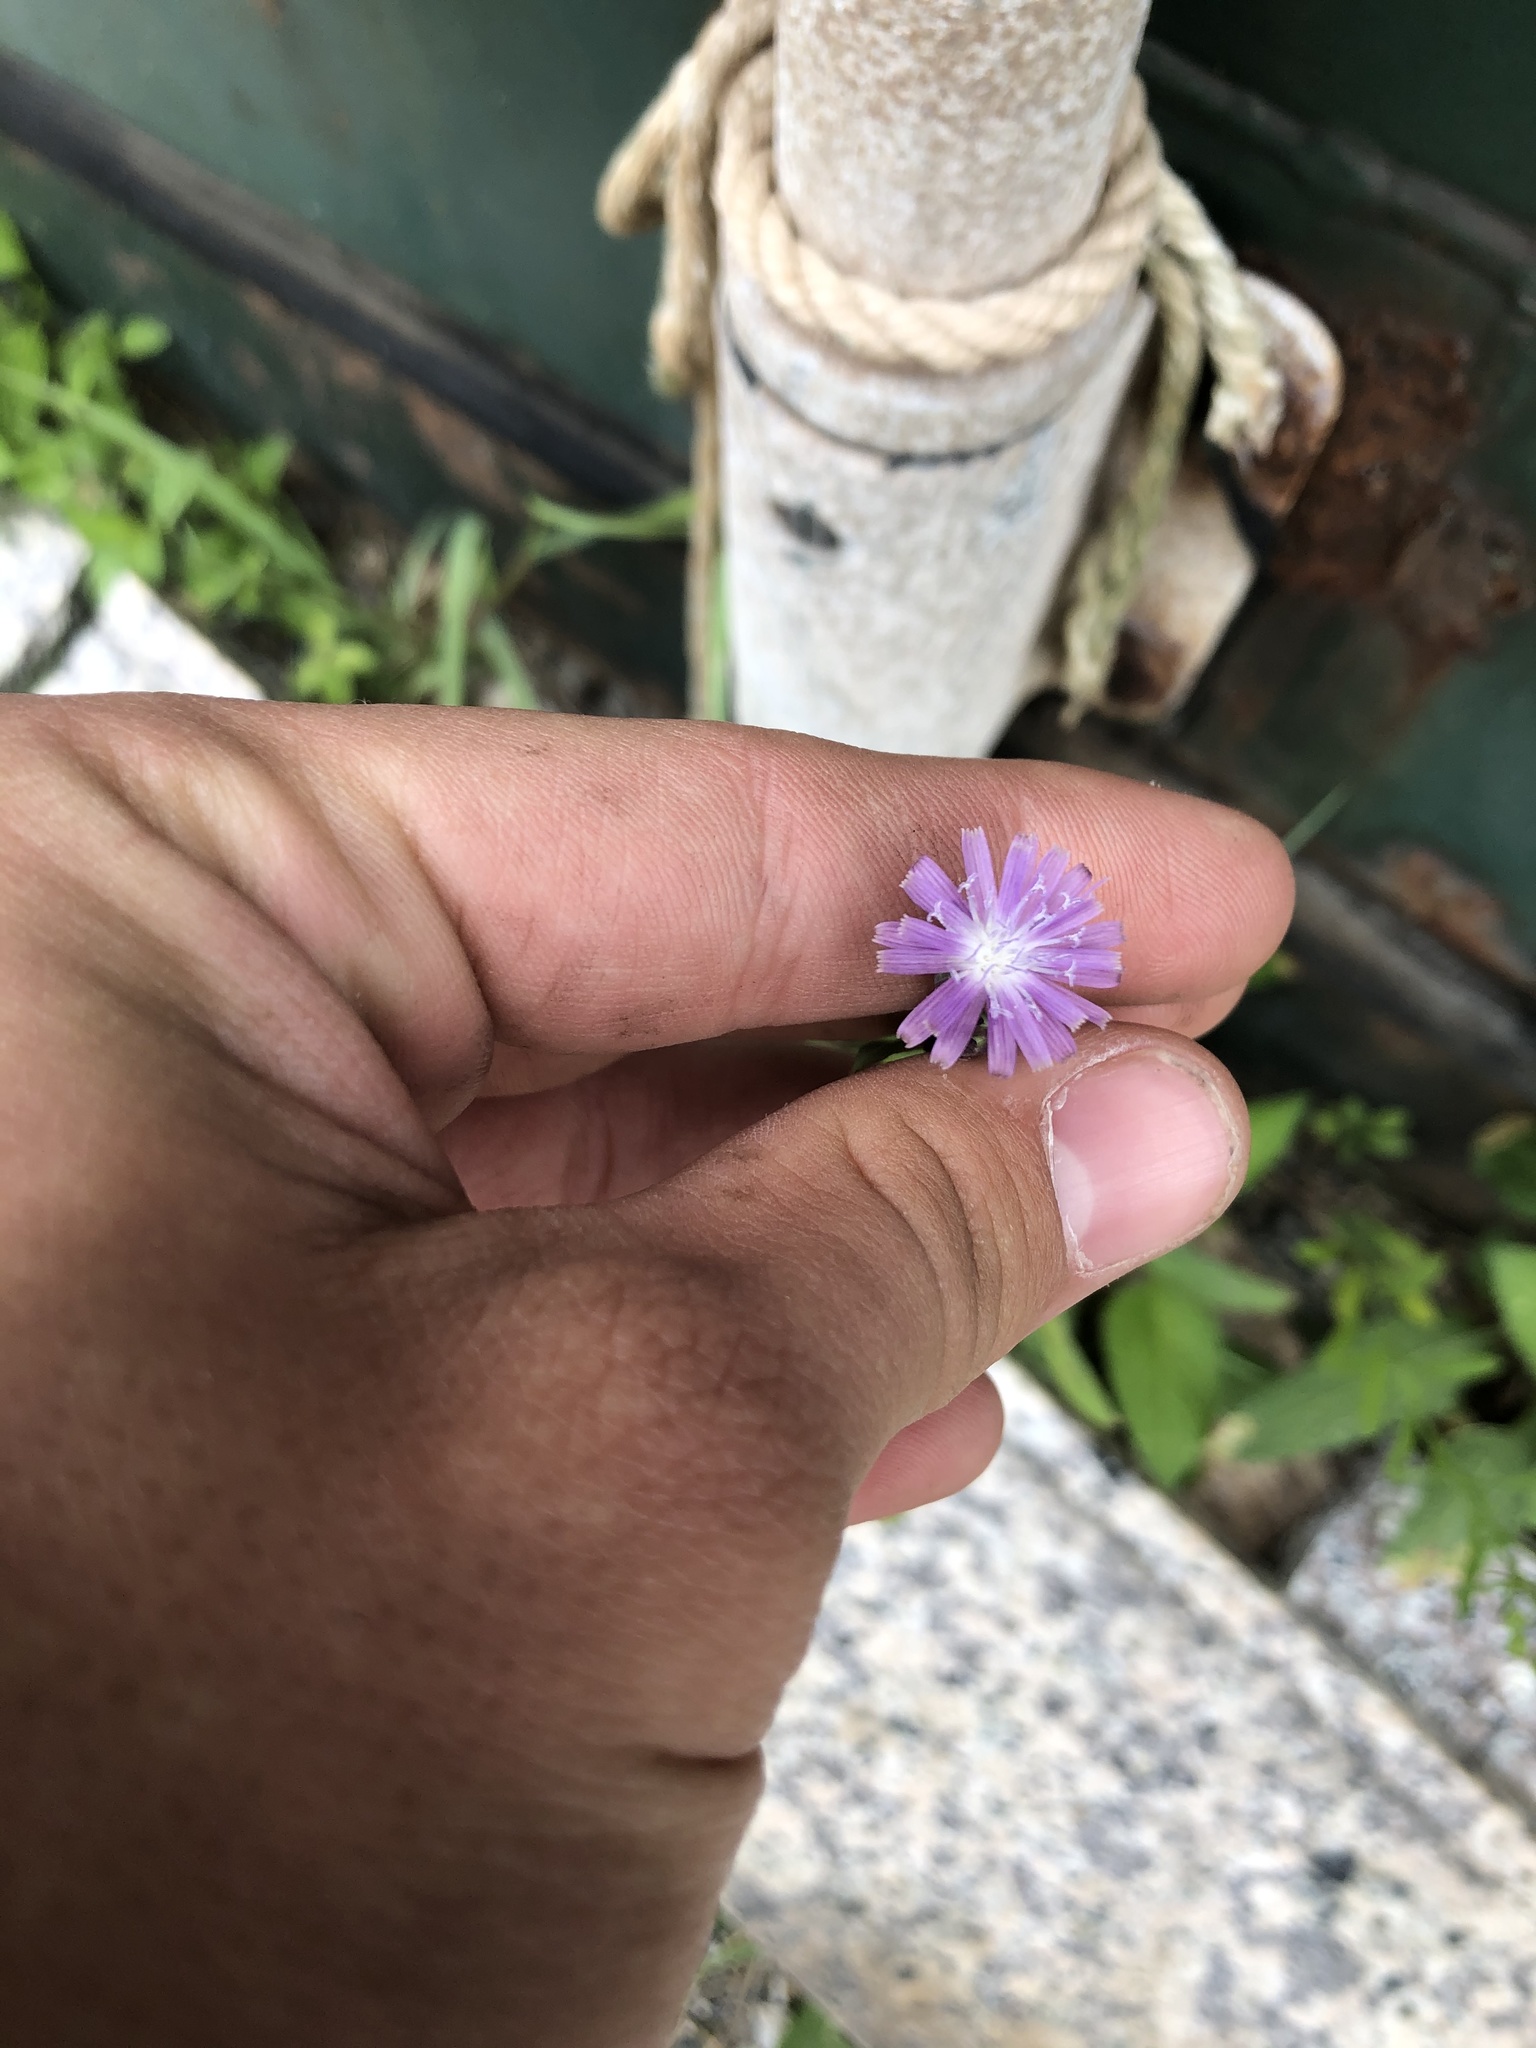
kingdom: Plantae
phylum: Tracheophyta
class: Magnoliopsida
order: Asterales
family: Asteraceae
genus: Lactuca
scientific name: Lactuca graminifolia
